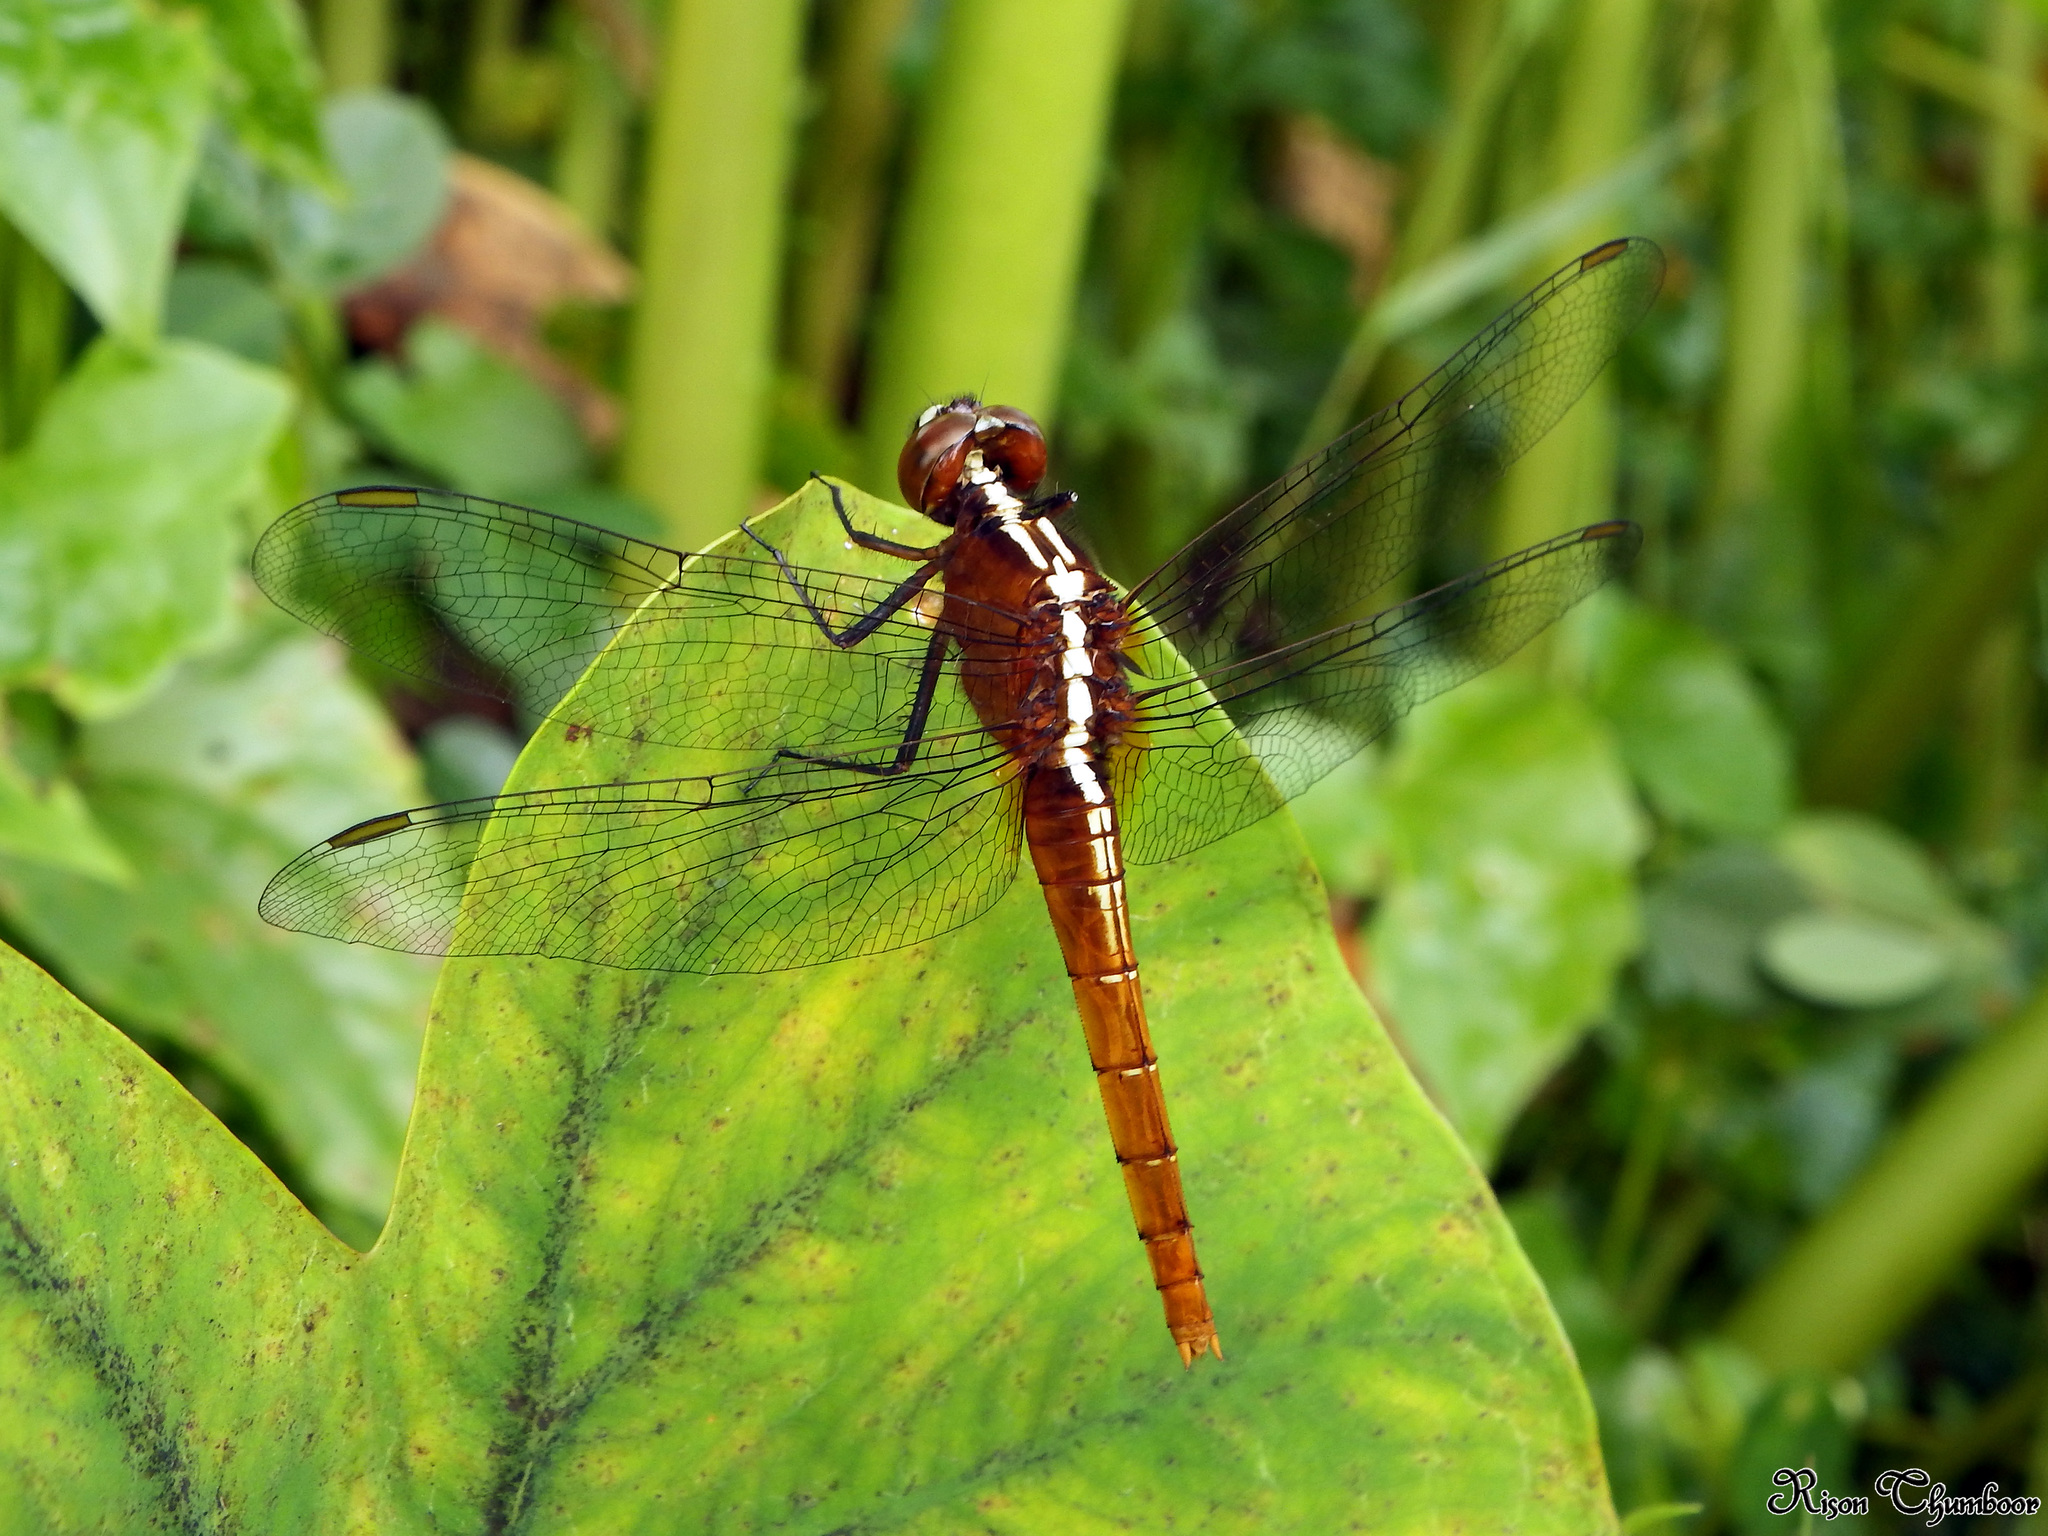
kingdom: Animalia
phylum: Arthropoda
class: Insecta
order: Odonata
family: Libellulidae
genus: Rhodothemis
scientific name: Rhodothemis rufa
